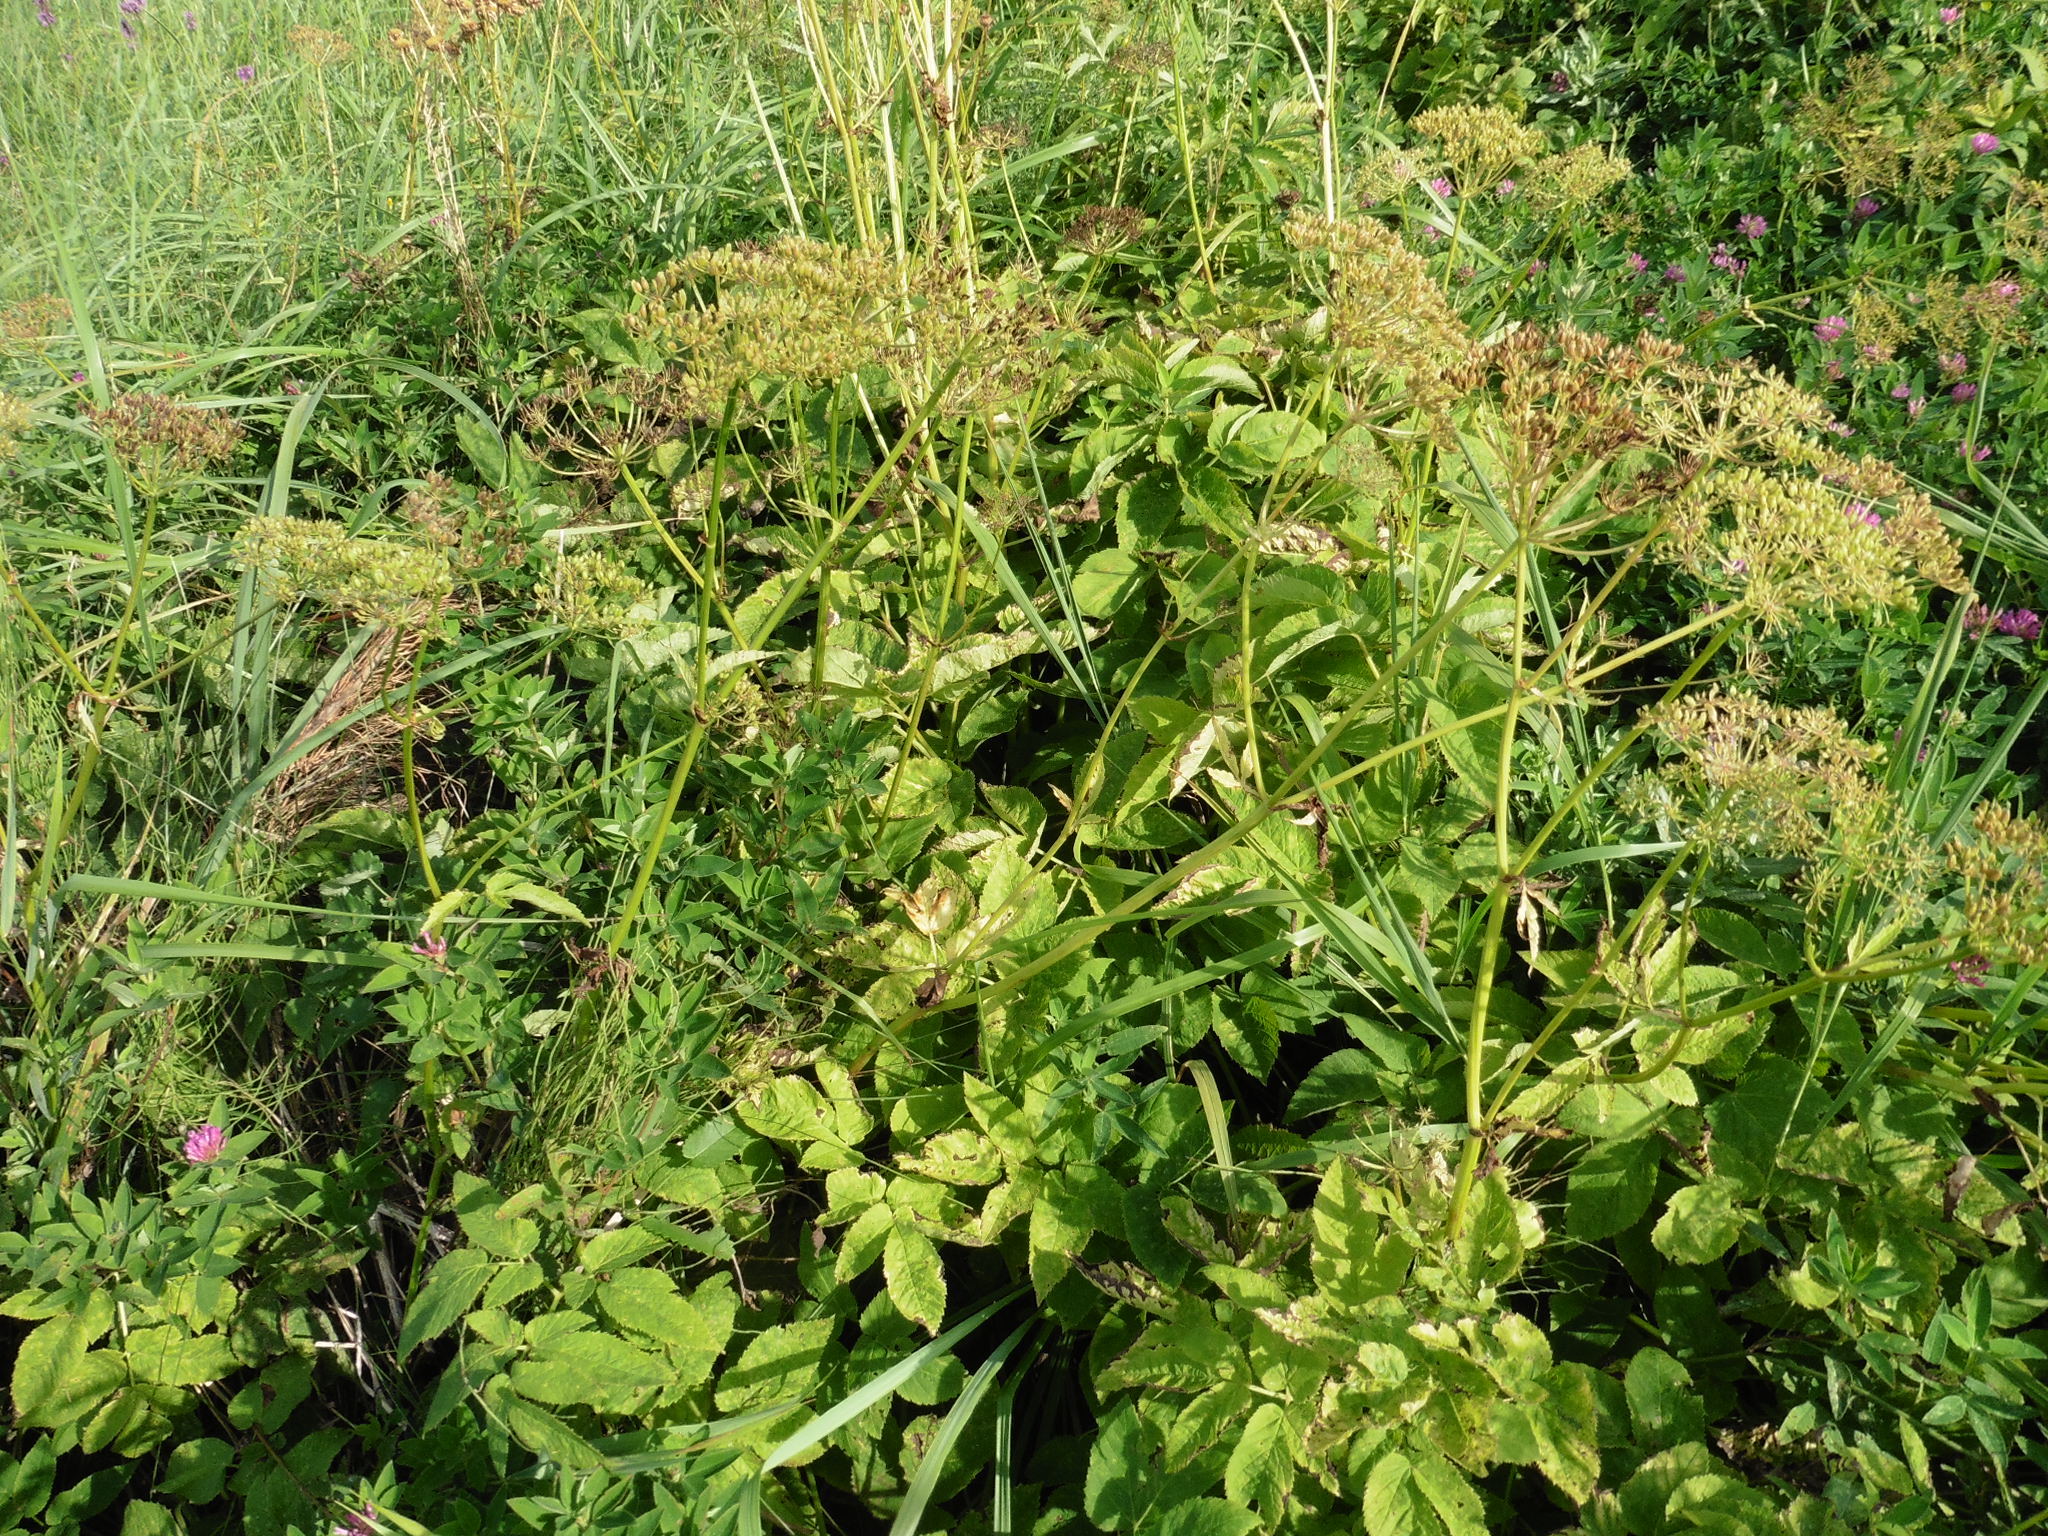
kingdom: Plantae
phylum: Tracheophyta
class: Magnoliopsida
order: Apiales
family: Apiaceae
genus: Aegopodium
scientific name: Aegopodium podagraria
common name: Ground-elder
